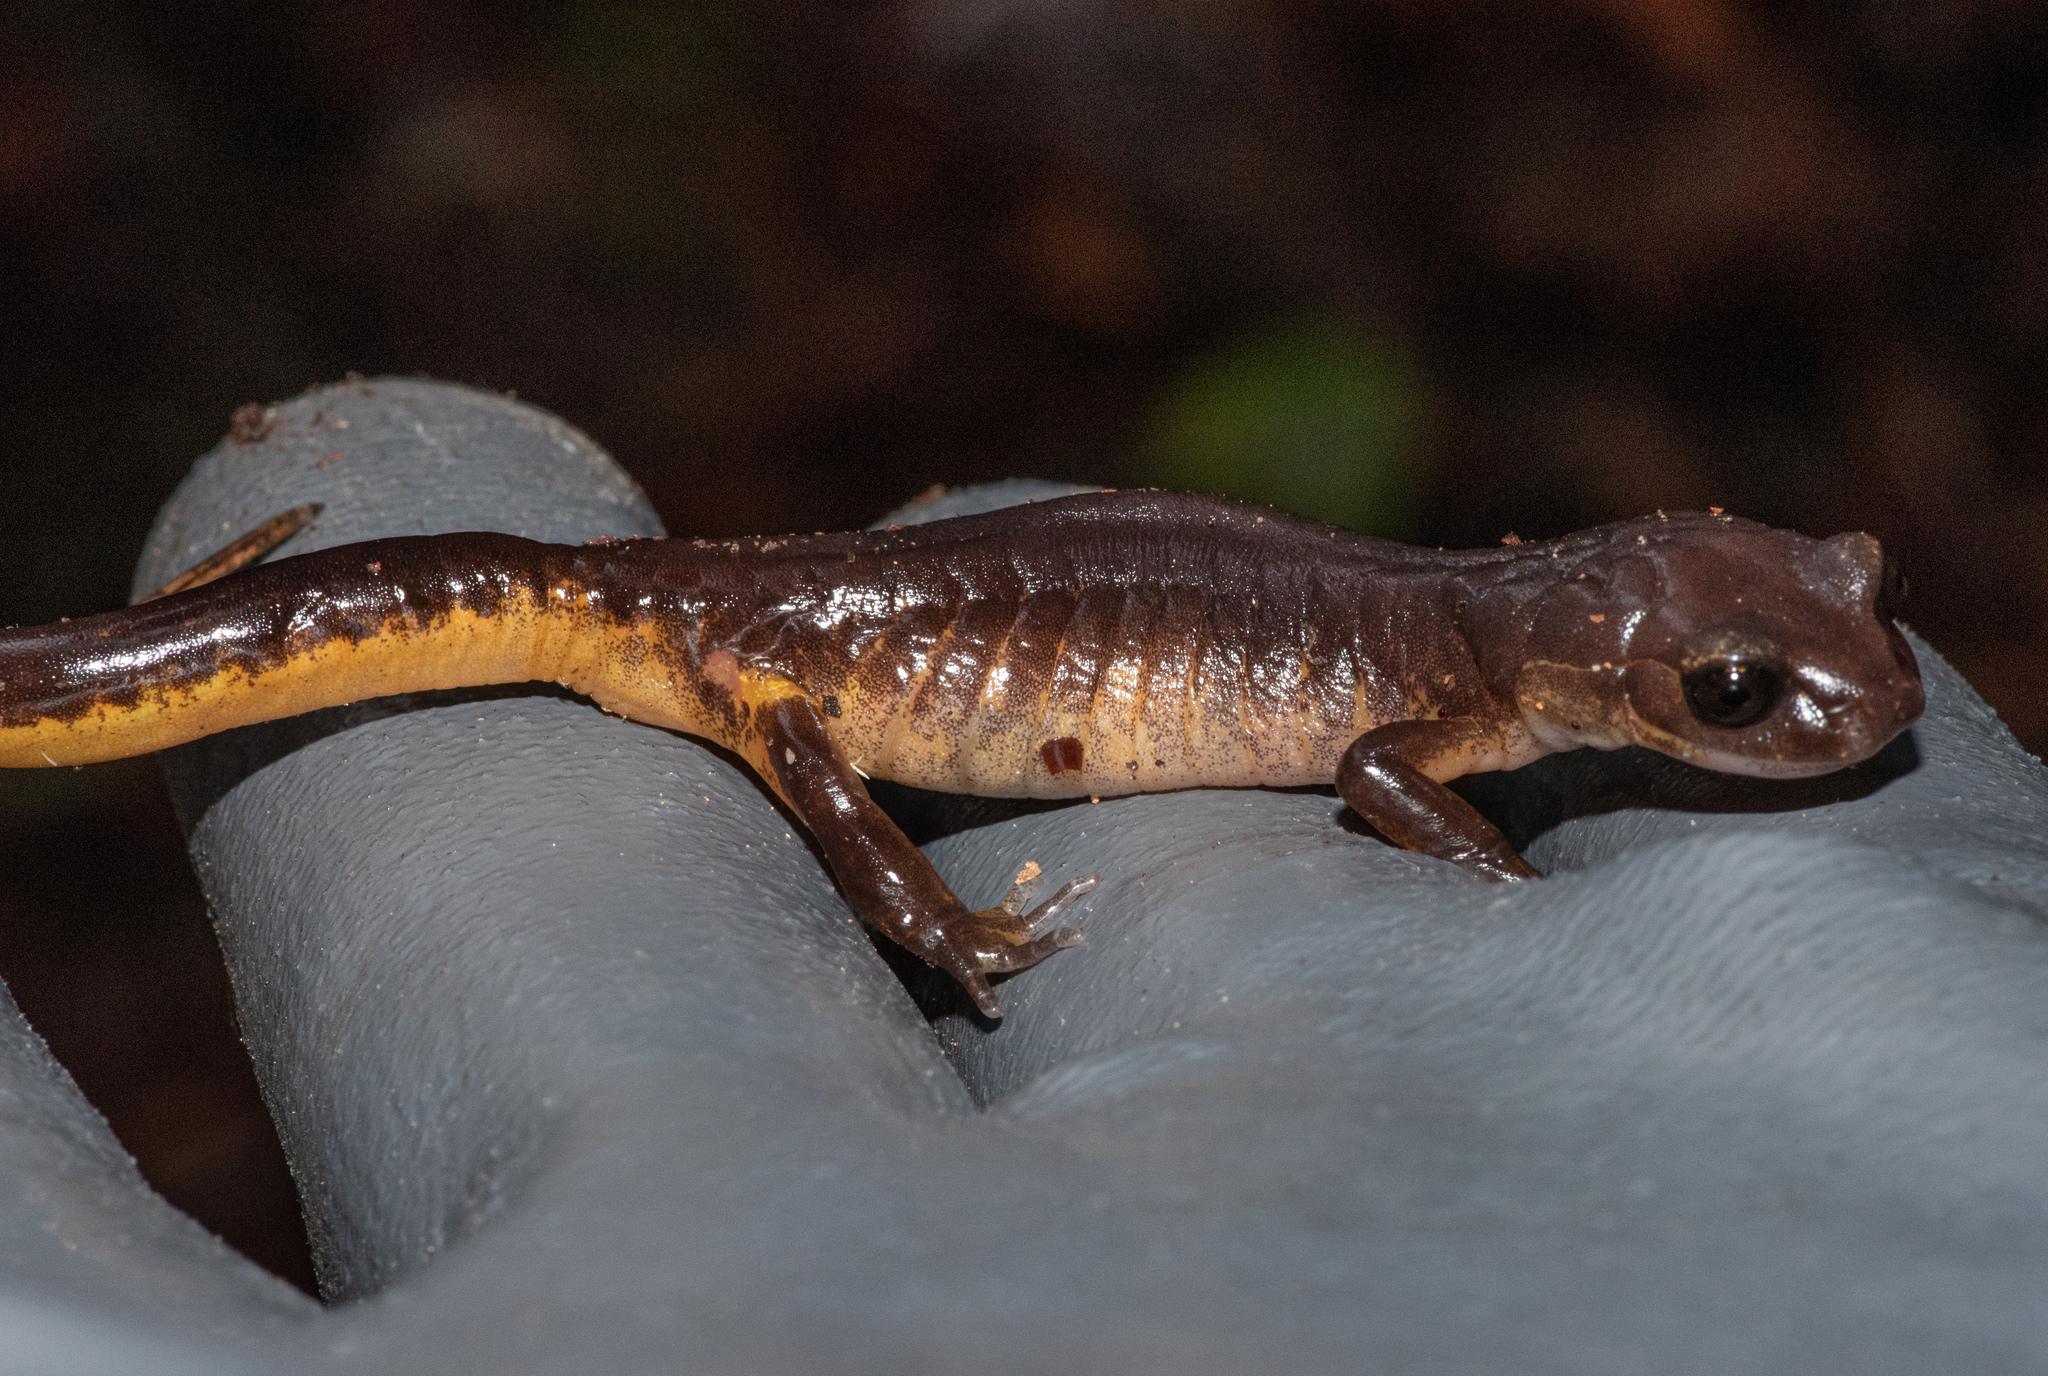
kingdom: Animalia
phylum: Chordata
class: Amphibia
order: Caudata
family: Plethodontidae
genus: Ensatina
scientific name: Ensatina eschscholtzii
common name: Ensatina
